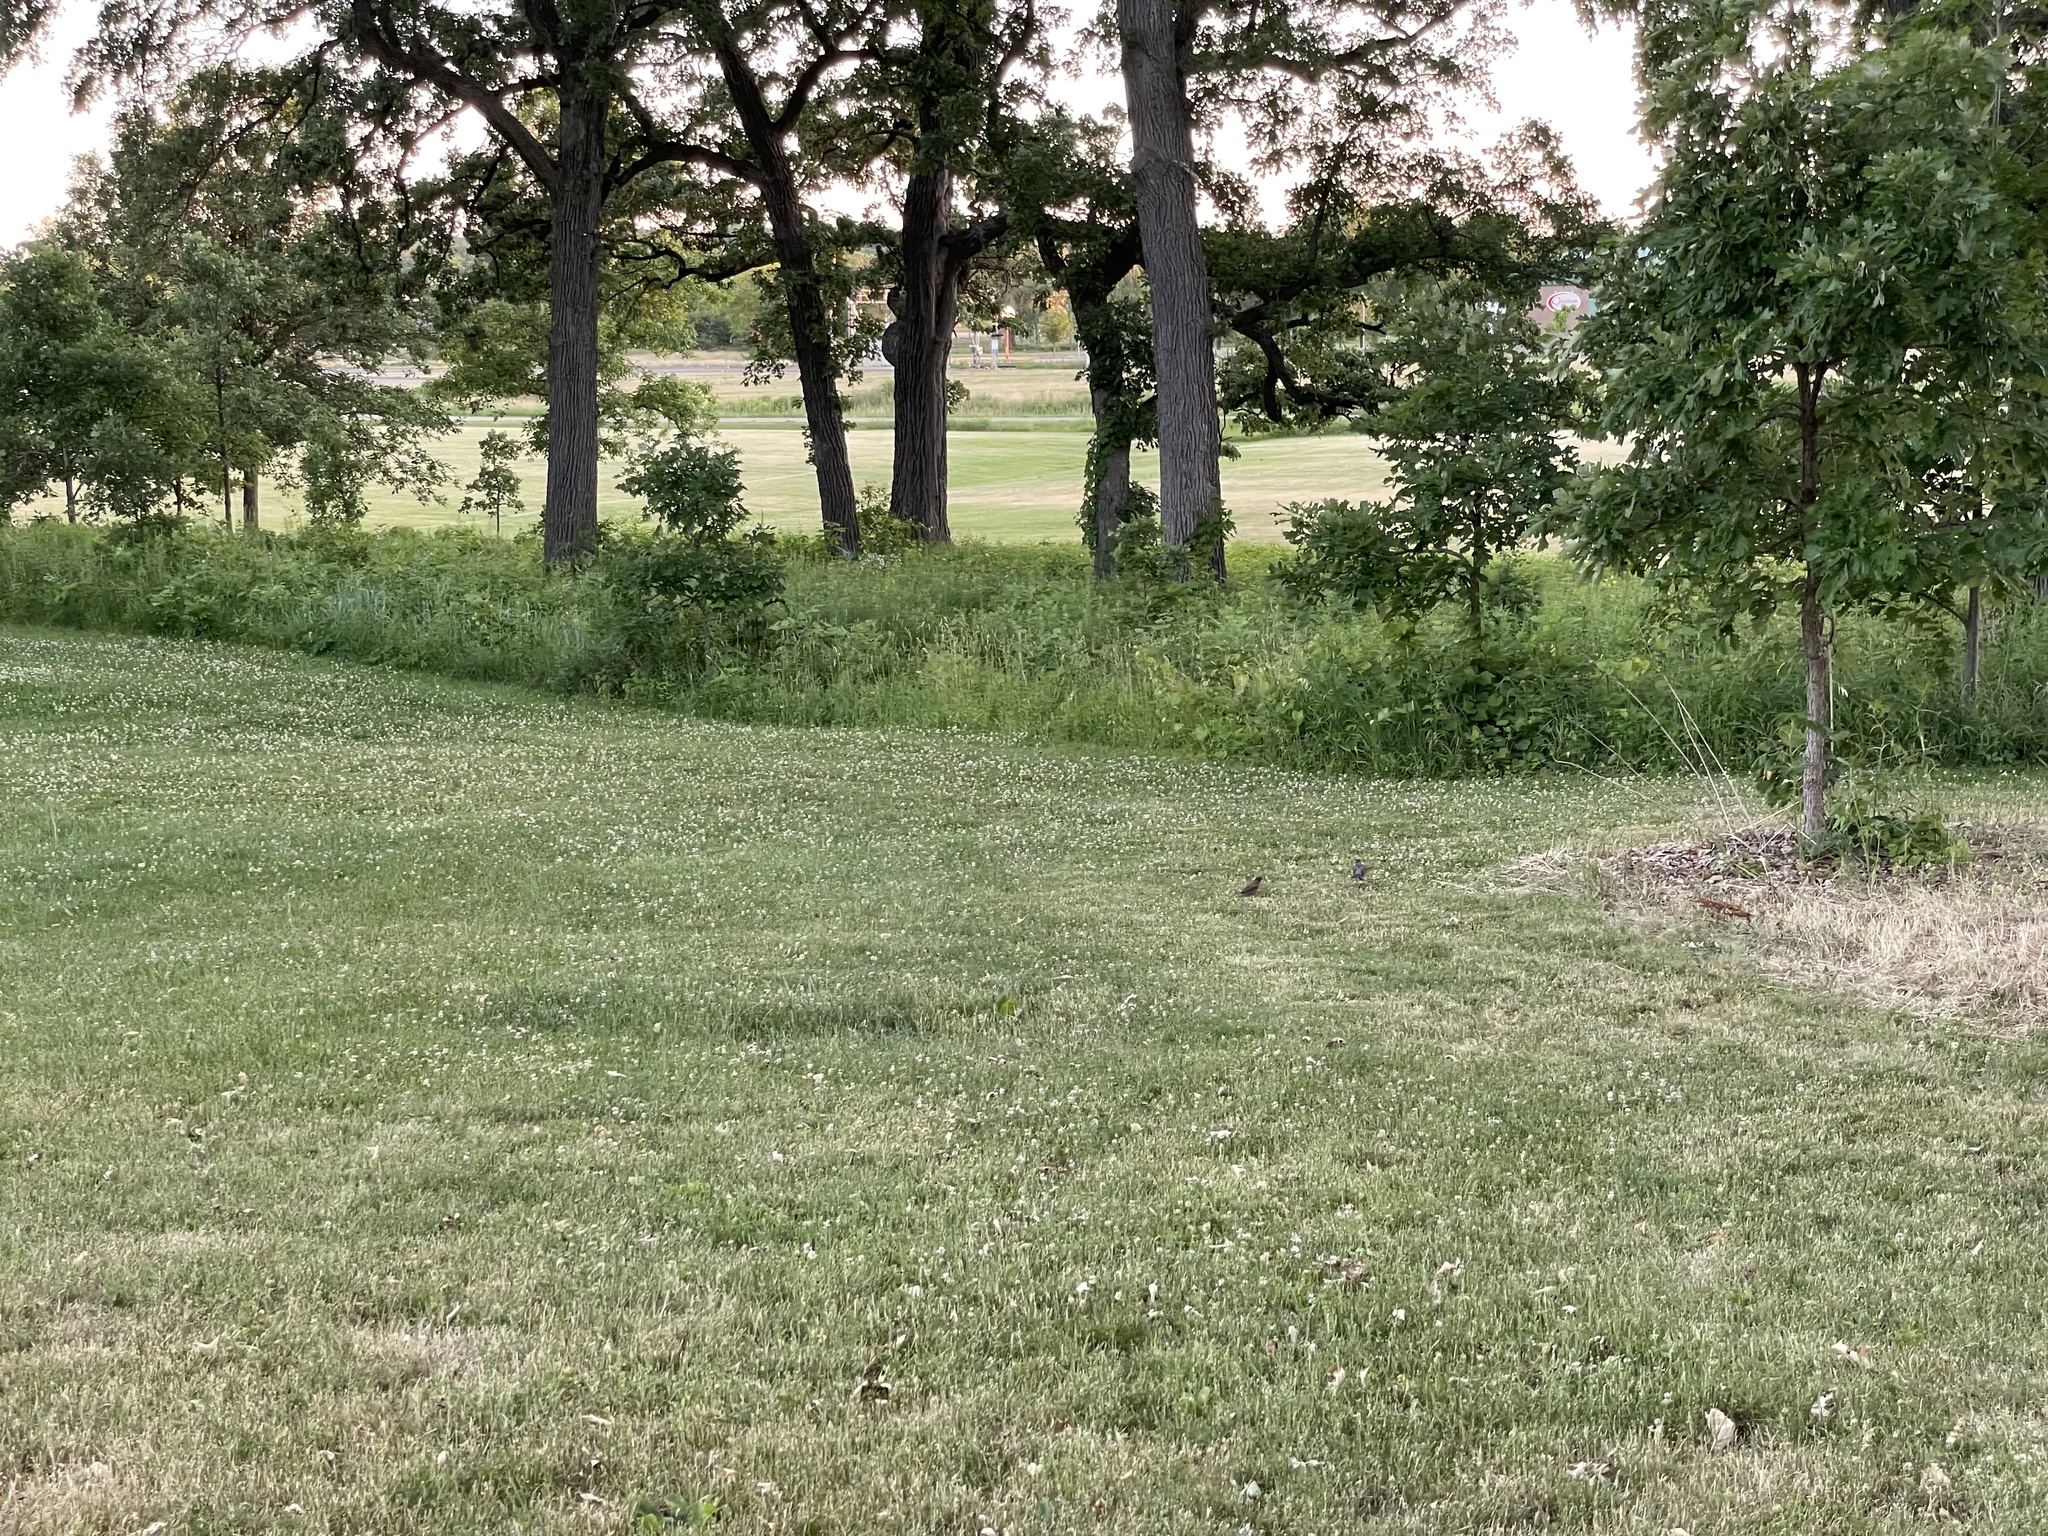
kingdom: Animalia
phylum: Chordata
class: Aves
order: Passeriformes
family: Turdidae
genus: Turdus
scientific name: Turdus migratorius
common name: American robin
